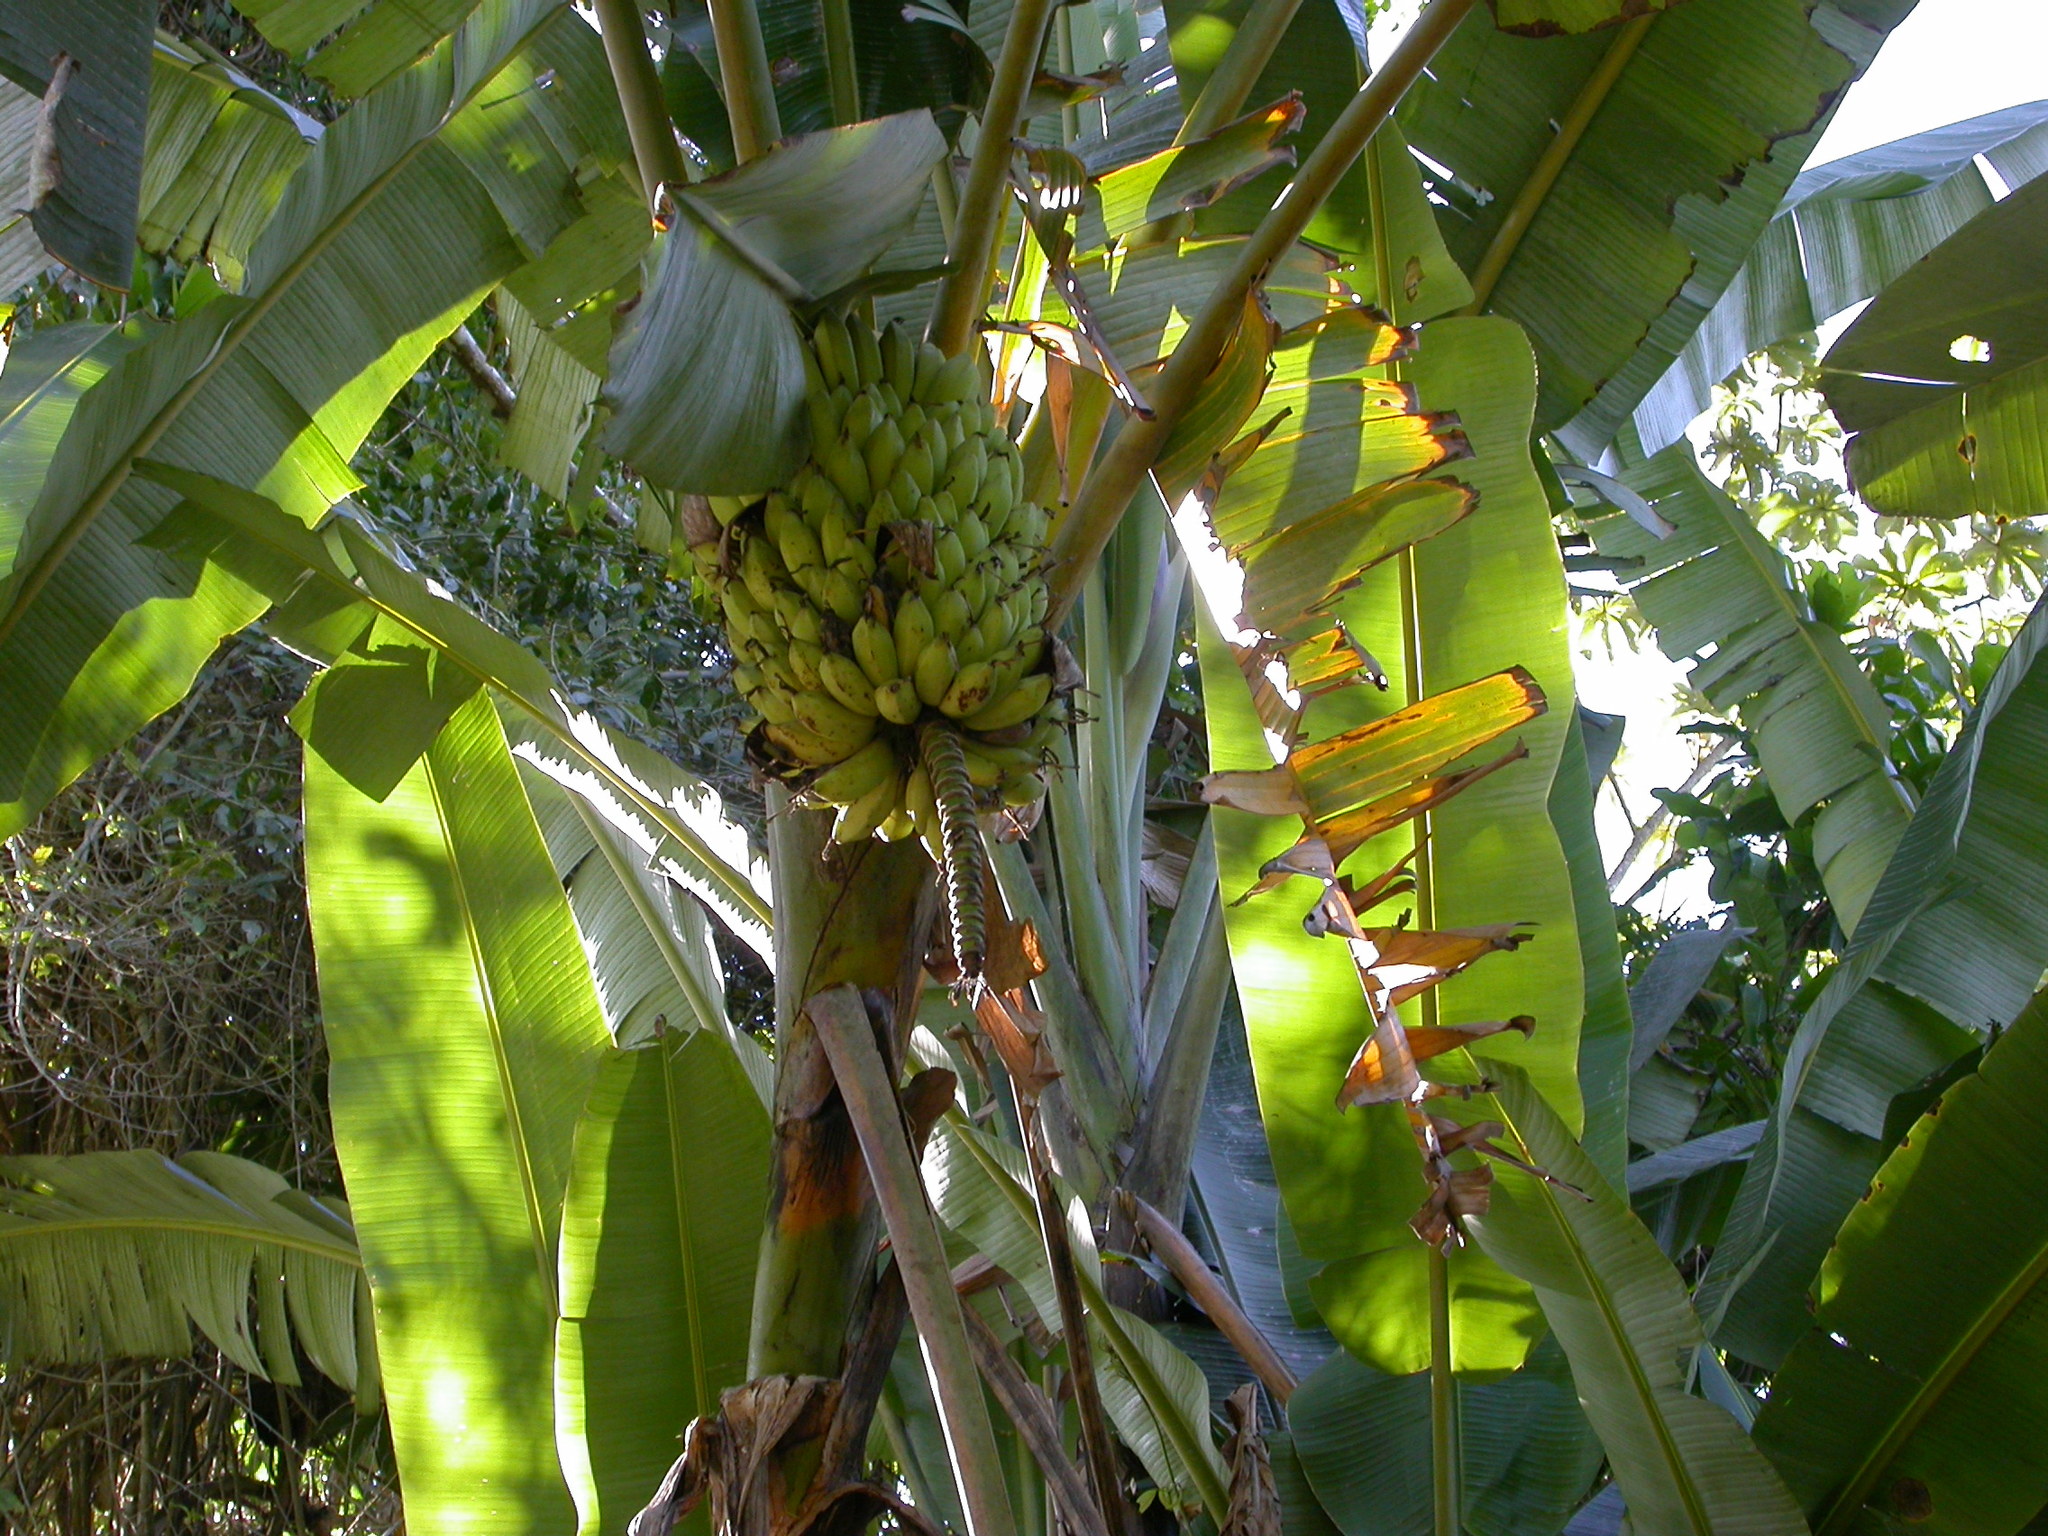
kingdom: Plantae
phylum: Tracheophyta
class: Liliopsida
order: Zingiberales
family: Musaceae
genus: Musa
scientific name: Musa paradisiaca
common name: French plantain
